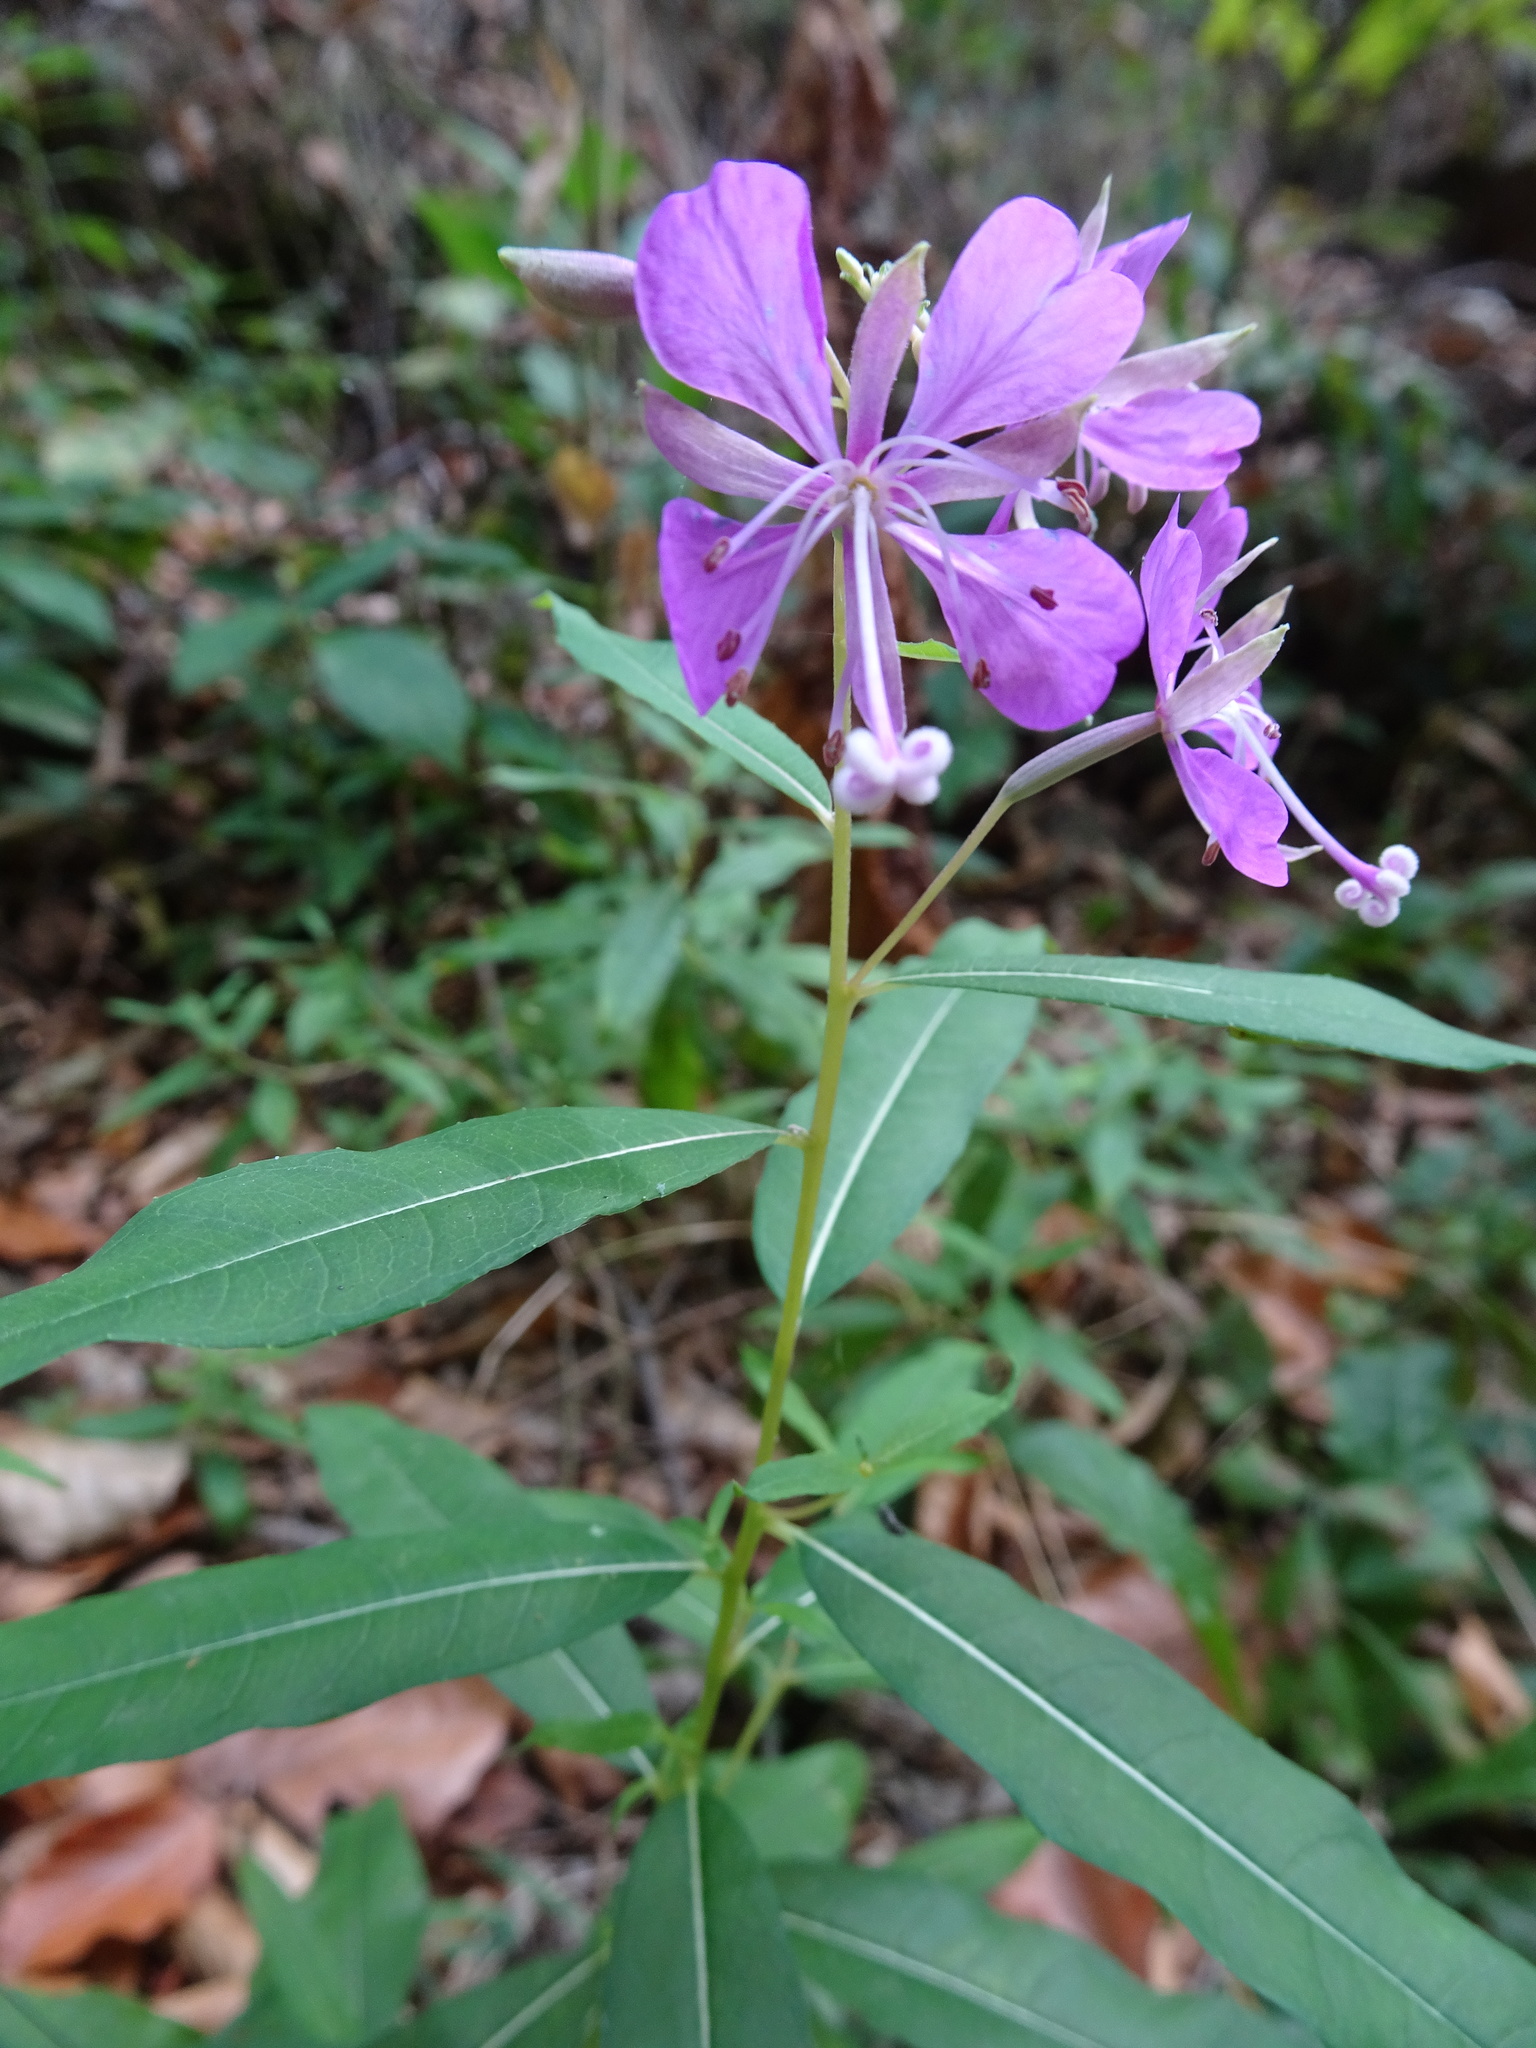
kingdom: Plantae
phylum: Tracheophyta
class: Magnoliopsida
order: Myrtales
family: Onagraceae
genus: Chamaenerion
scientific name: Chamaenerion angustifolium
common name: Fireweed
